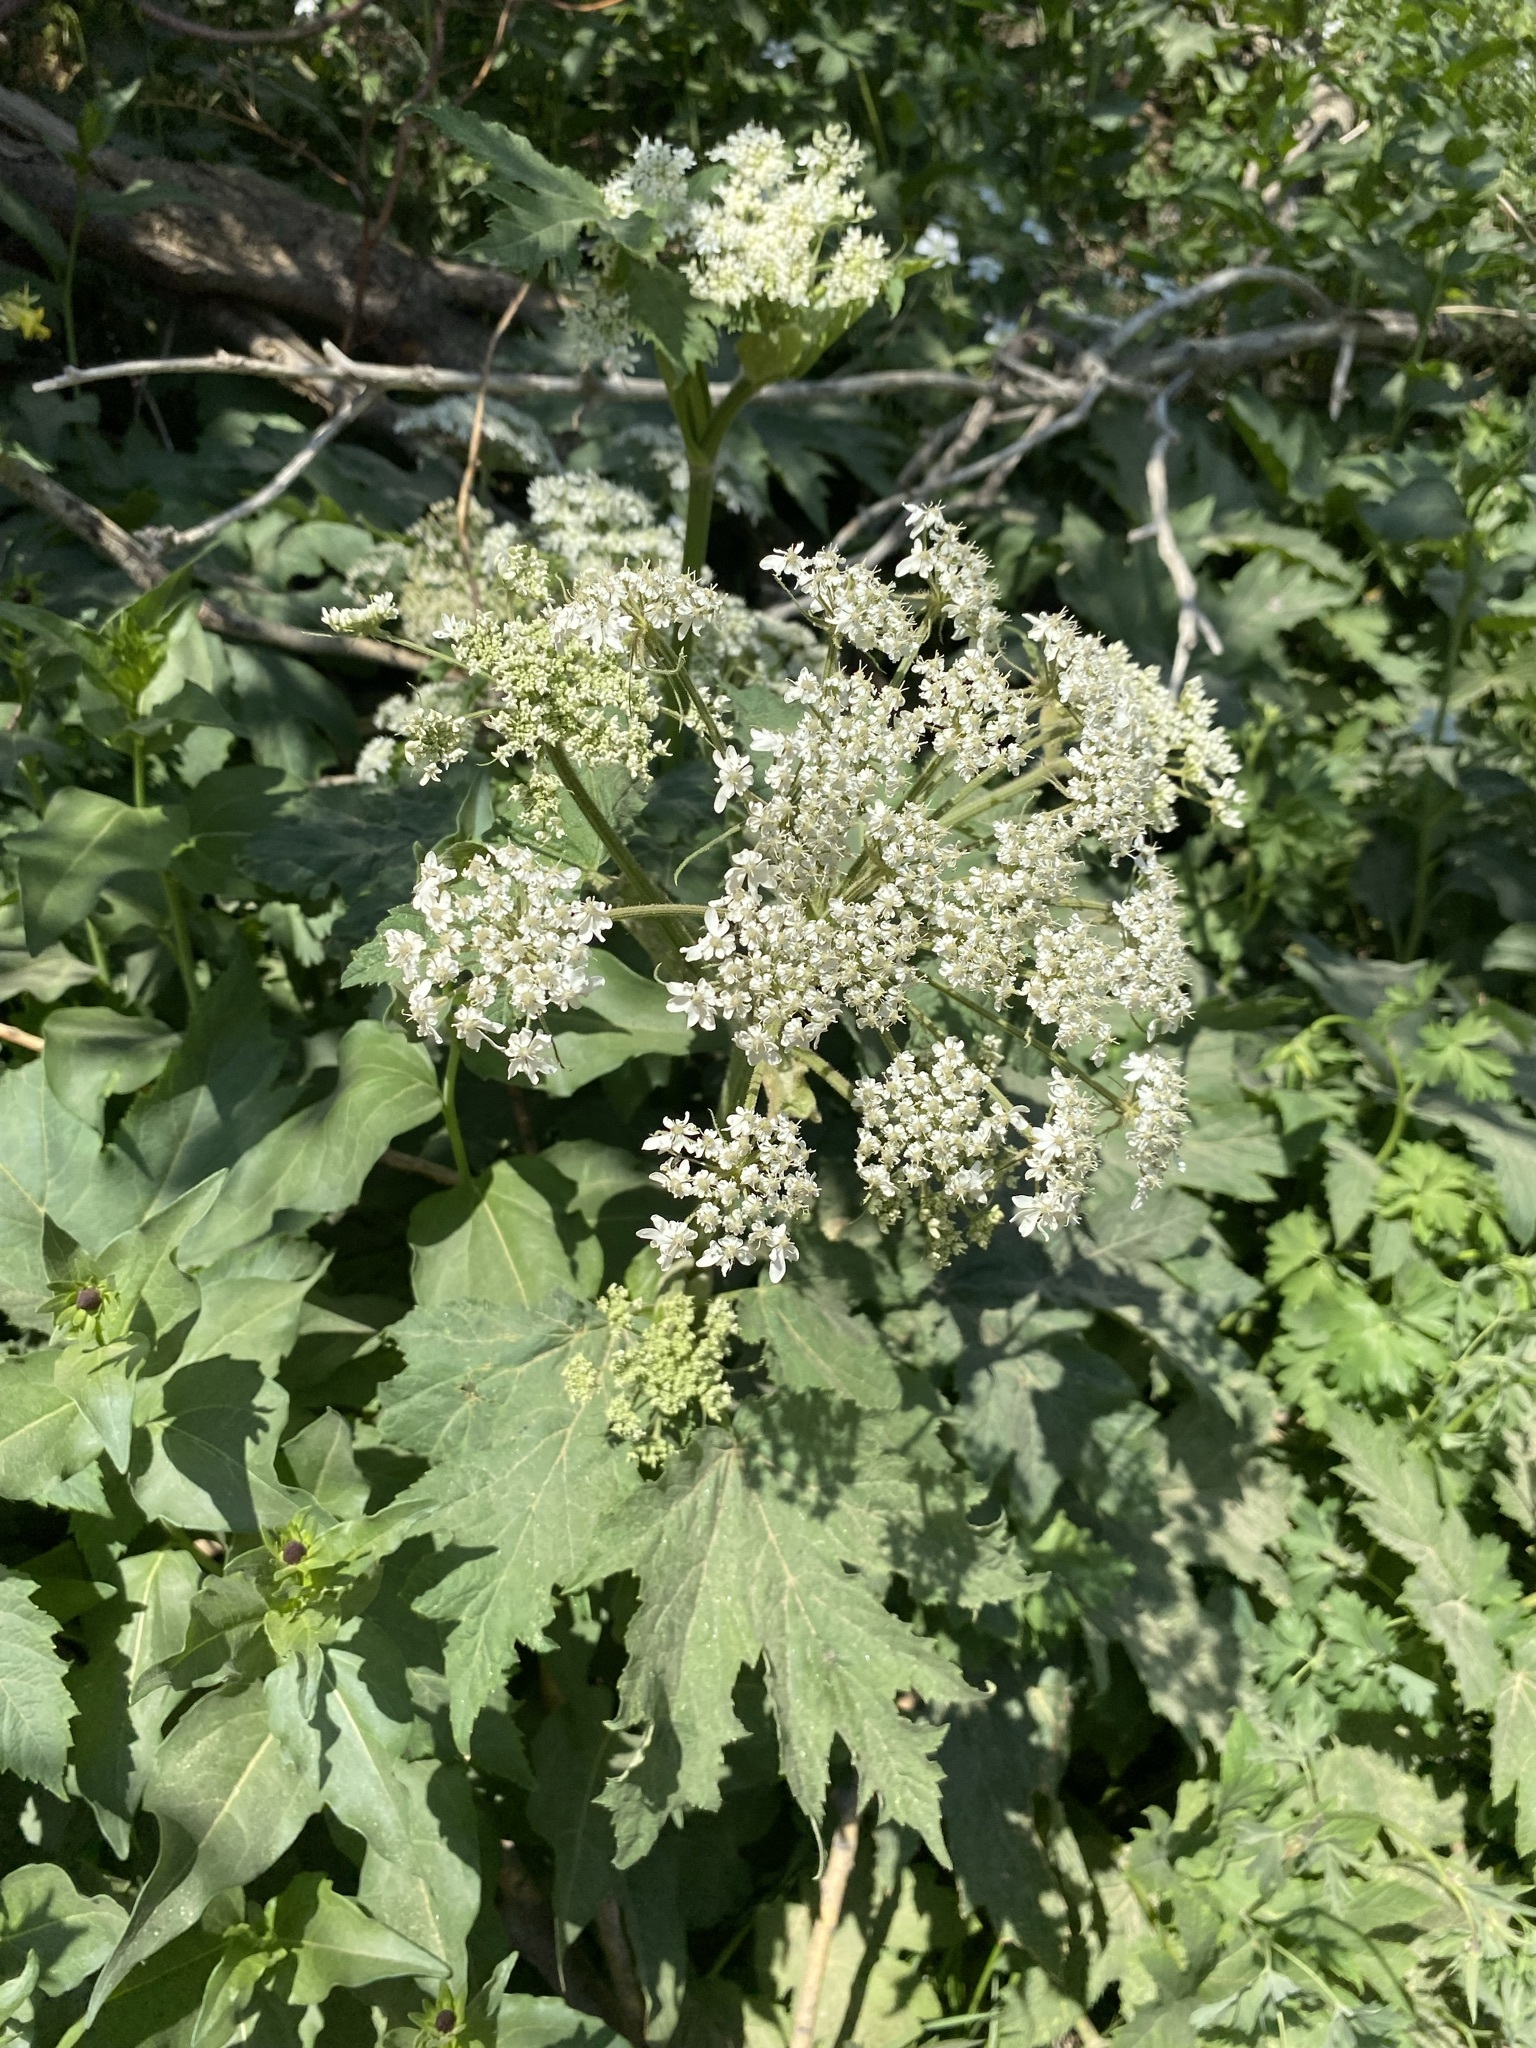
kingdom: Plantae
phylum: Tracheophyta
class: Magnoliopsida
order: Apiales
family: Apiaceae
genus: Heracleum
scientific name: Heracleum maximum
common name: American cow parsnip
